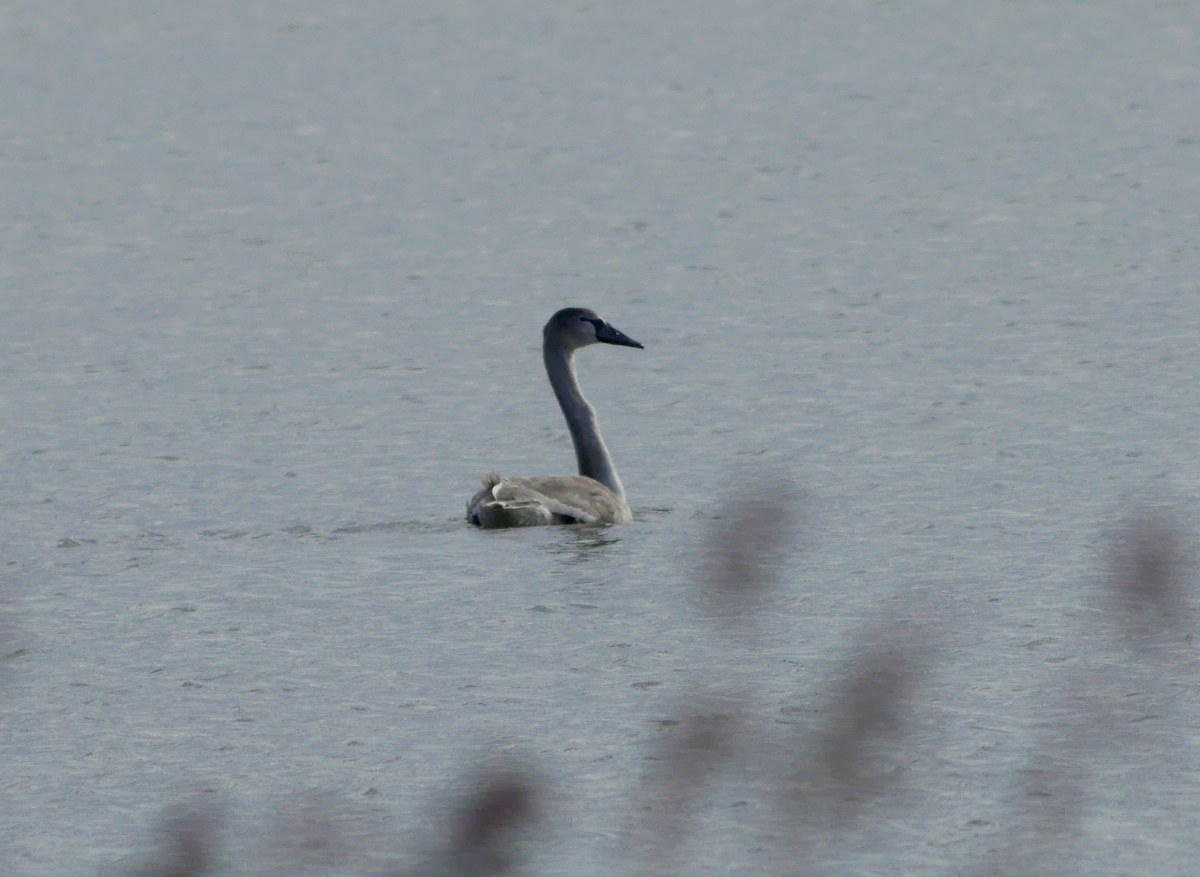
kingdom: Animalia
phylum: Chordata
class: Aves
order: Anseriformes
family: Anatidae
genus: Cygnus
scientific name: Cygnus olor
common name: Mute swan
